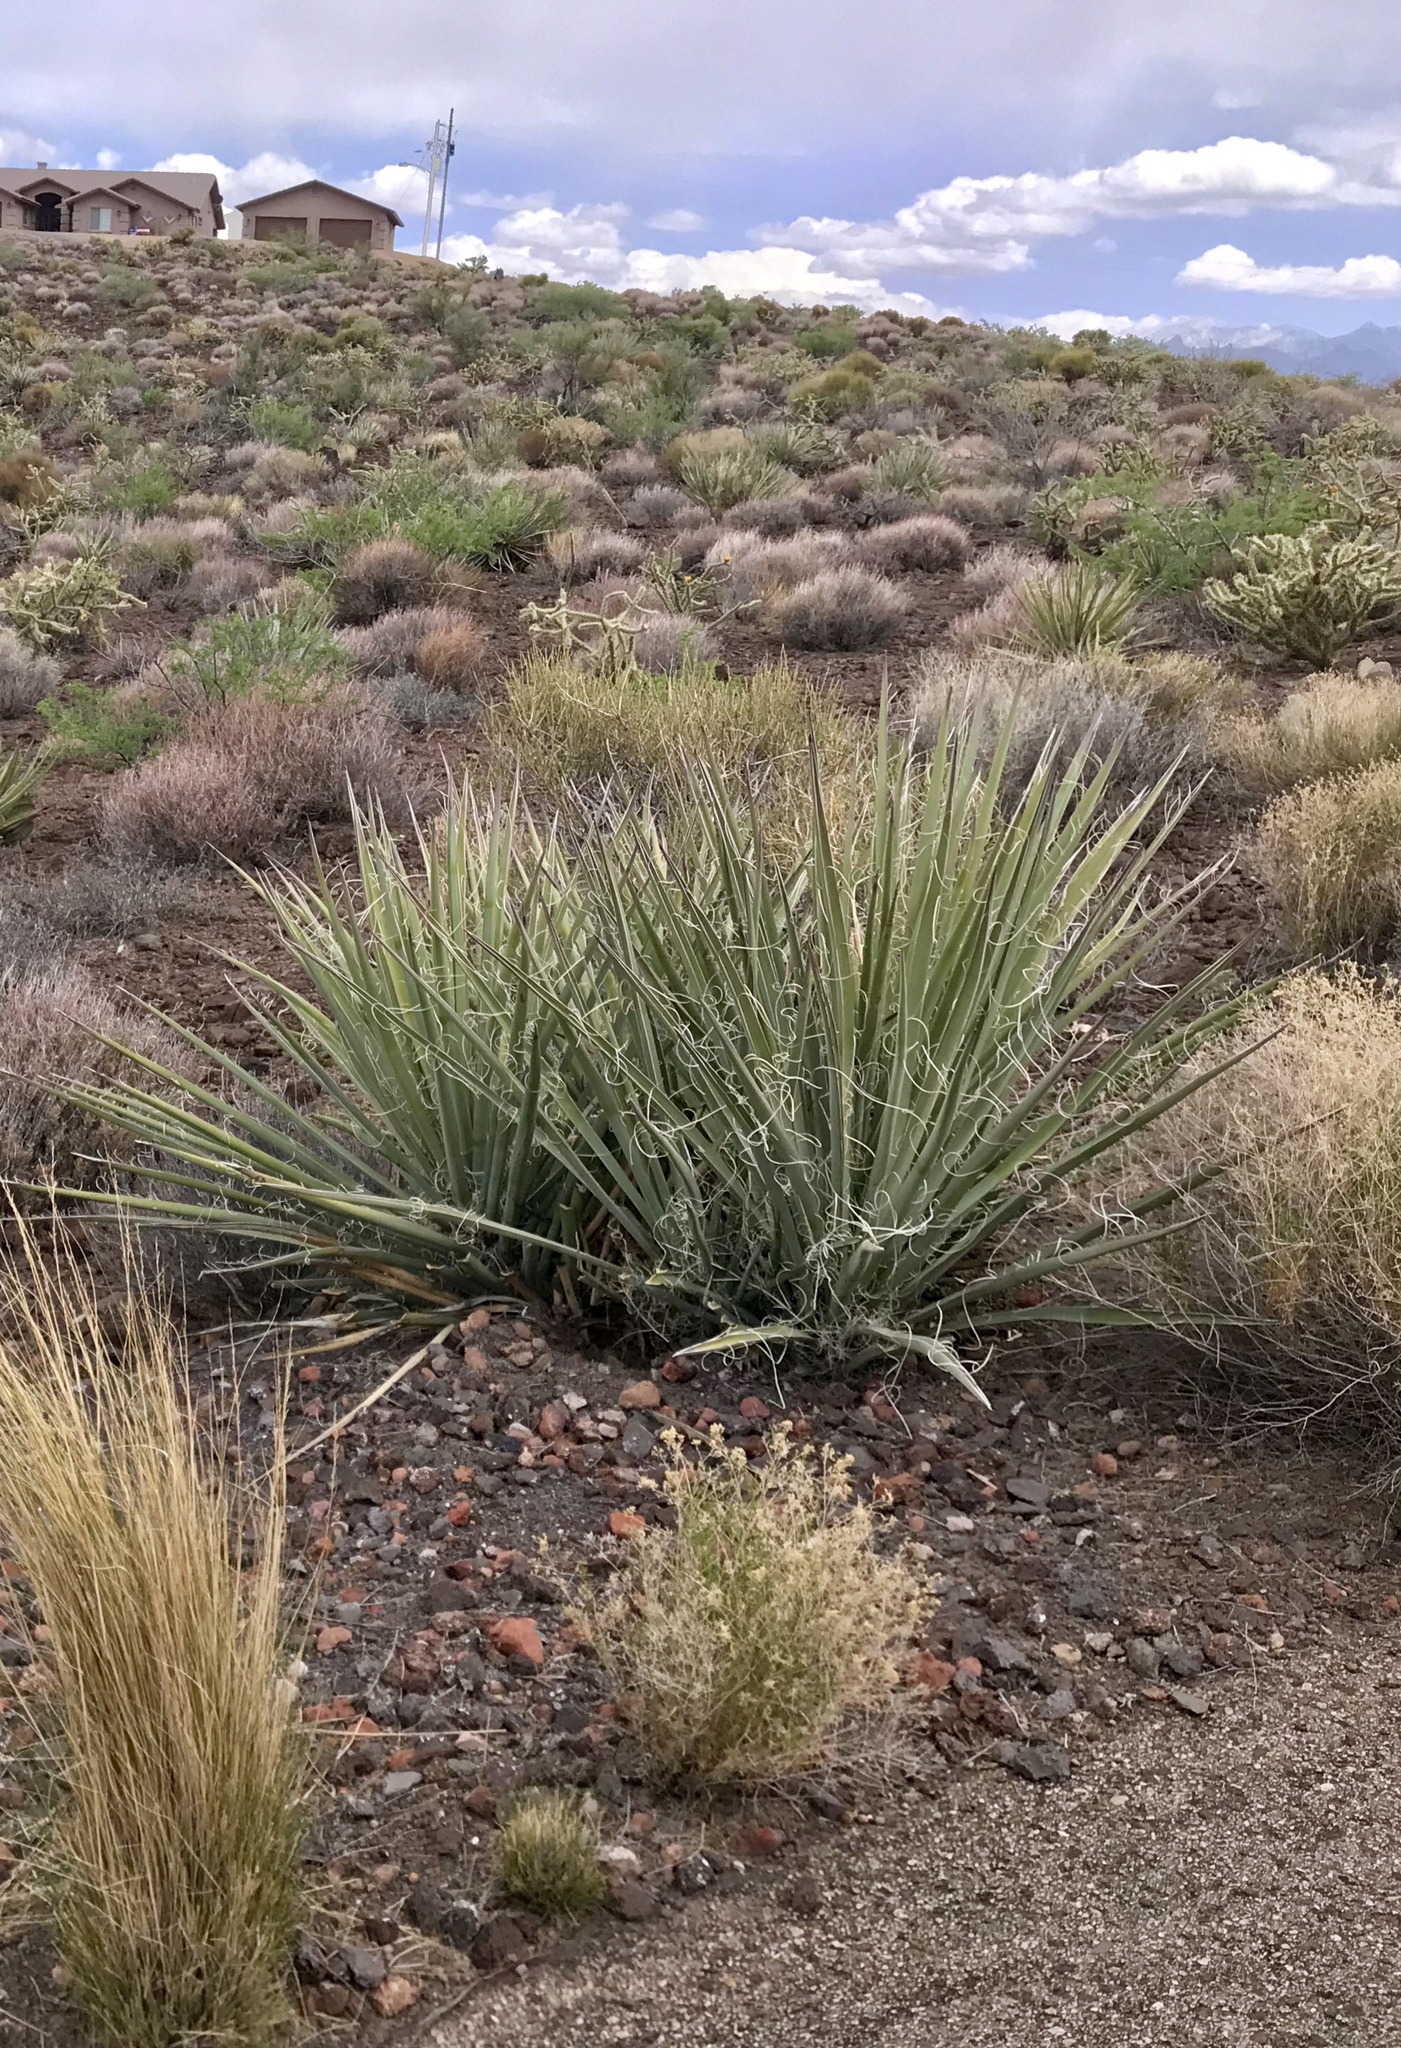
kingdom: Plantae
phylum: Tracheophyta
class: Liliopsida
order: Asparagales
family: Asparagaceae
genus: Yucca
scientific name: Yucca baccata
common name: Banana yucca
